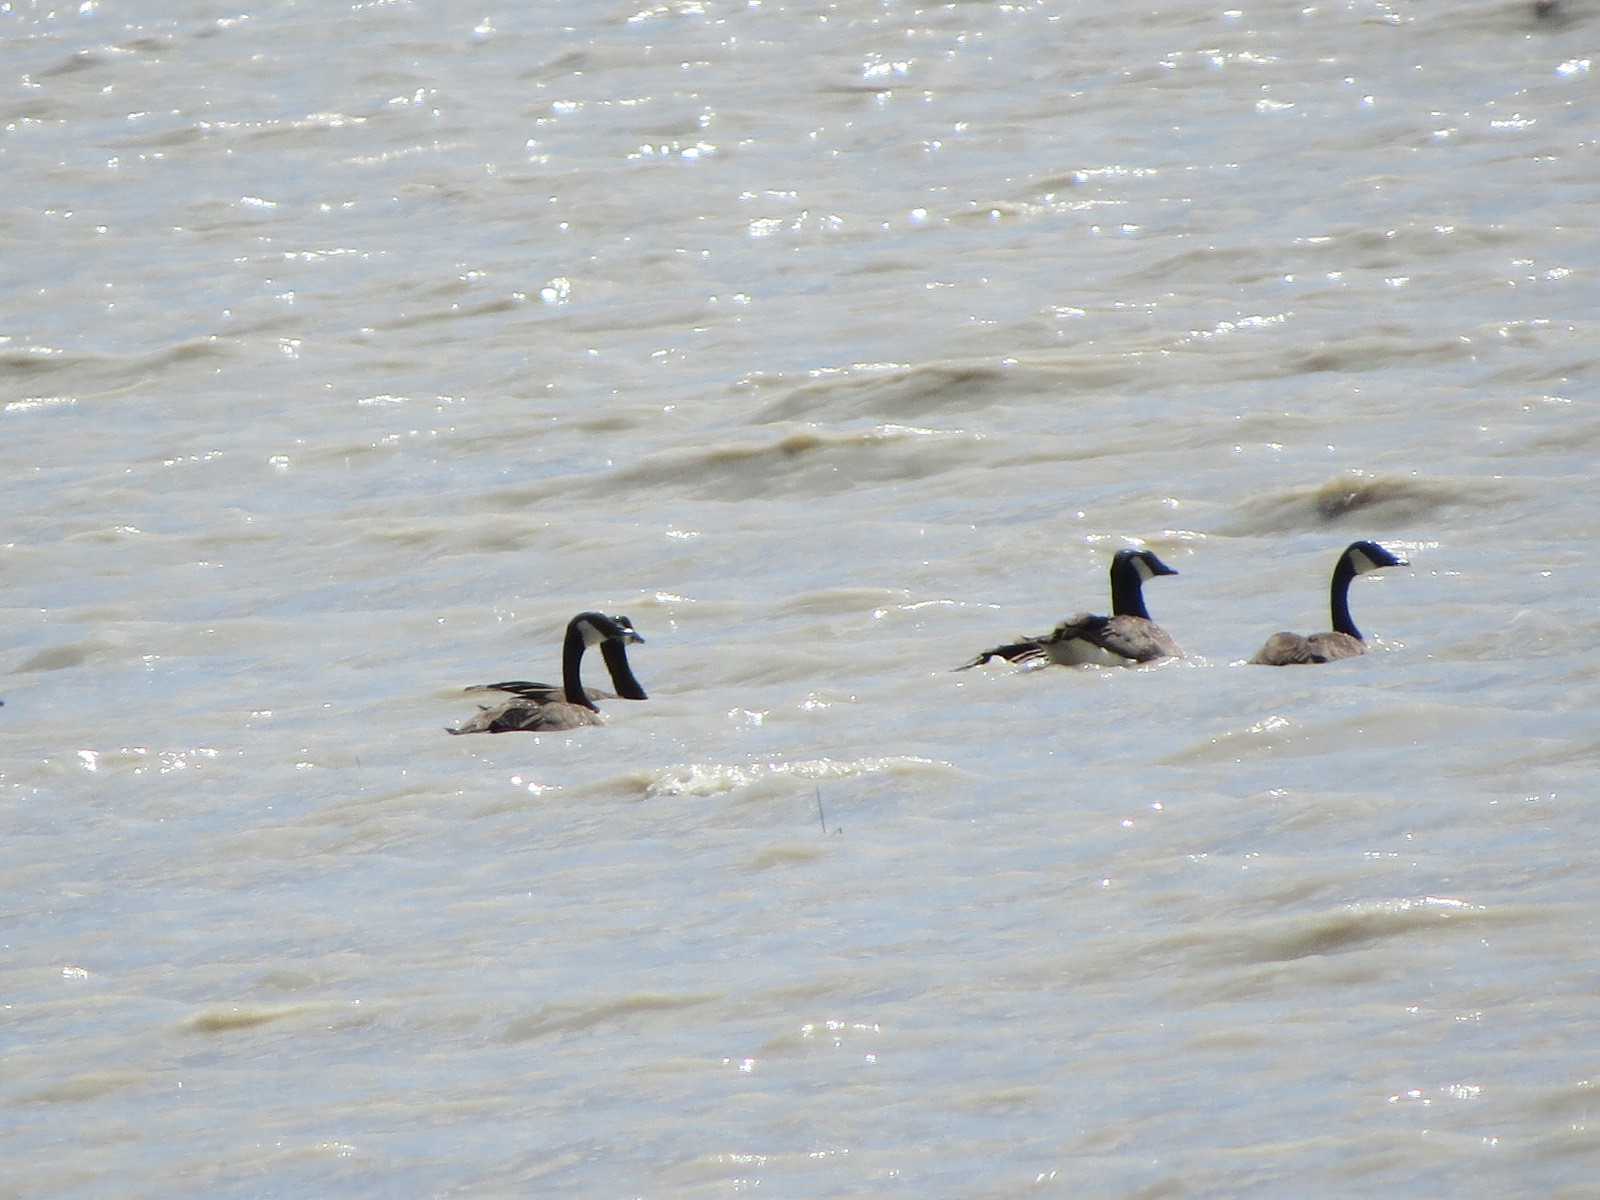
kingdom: Animalia
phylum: Chordata
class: Aves
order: Anseriformes
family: Anatidae
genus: Branta
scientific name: Branta canadensis
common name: Canada goose
